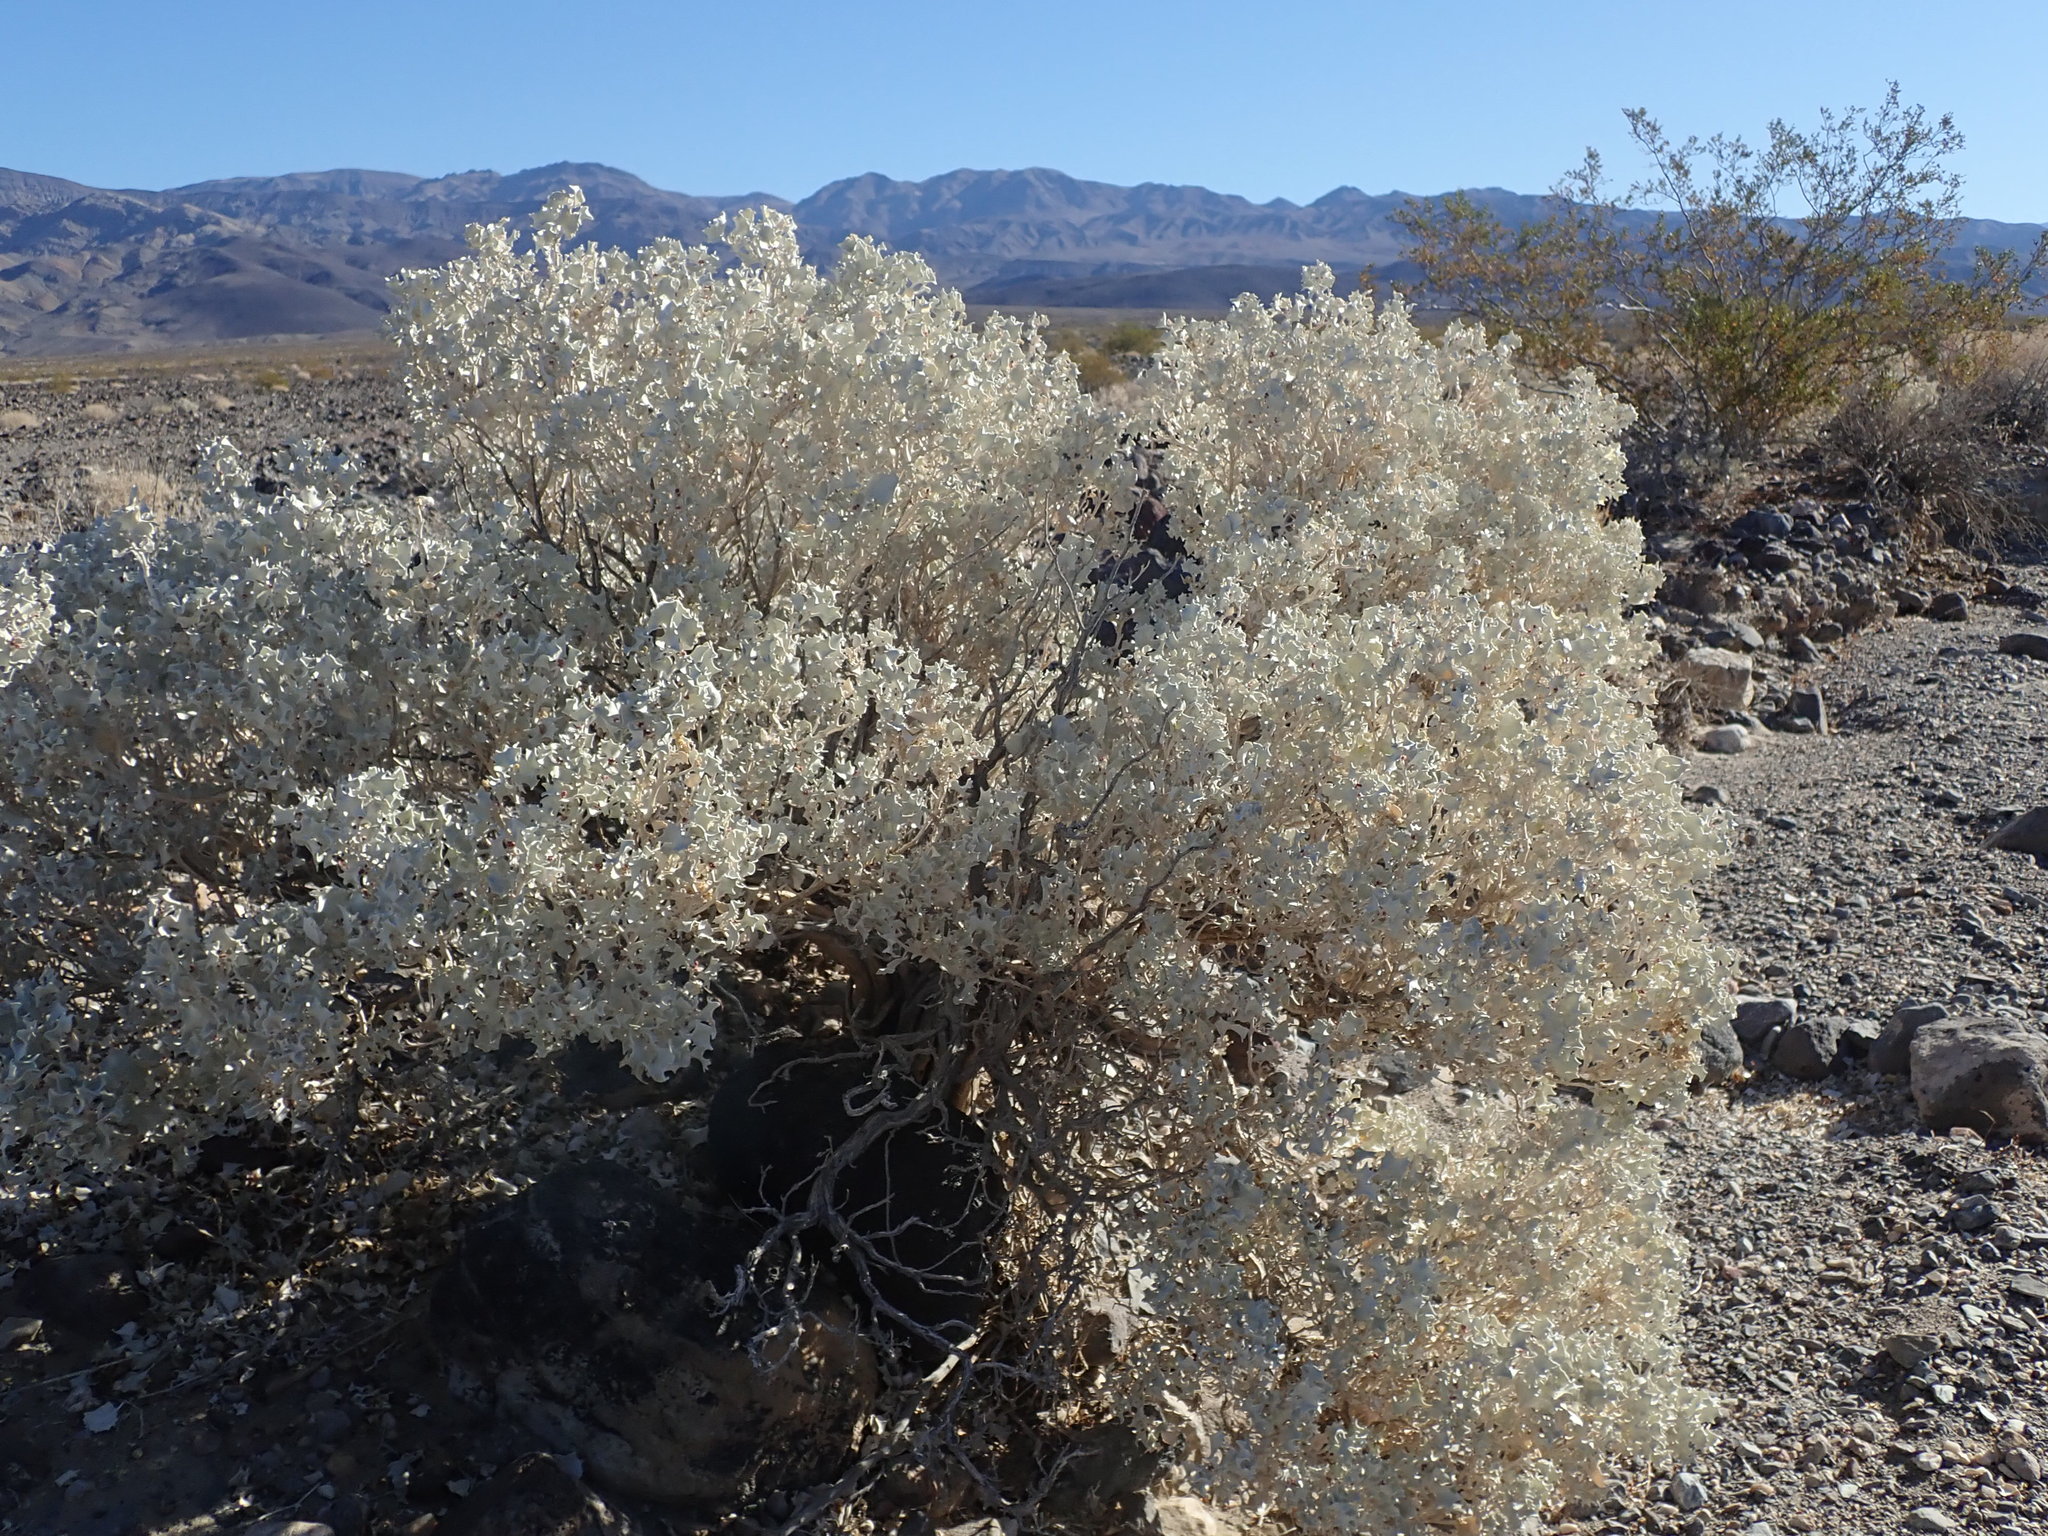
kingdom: Plantae
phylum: Tracheophyta
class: Magnoliopsida
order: Caryophyllales
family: Amaranthaceae
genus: Atriplex
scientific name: Atriplex hymenelytra
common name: Desert-holly
